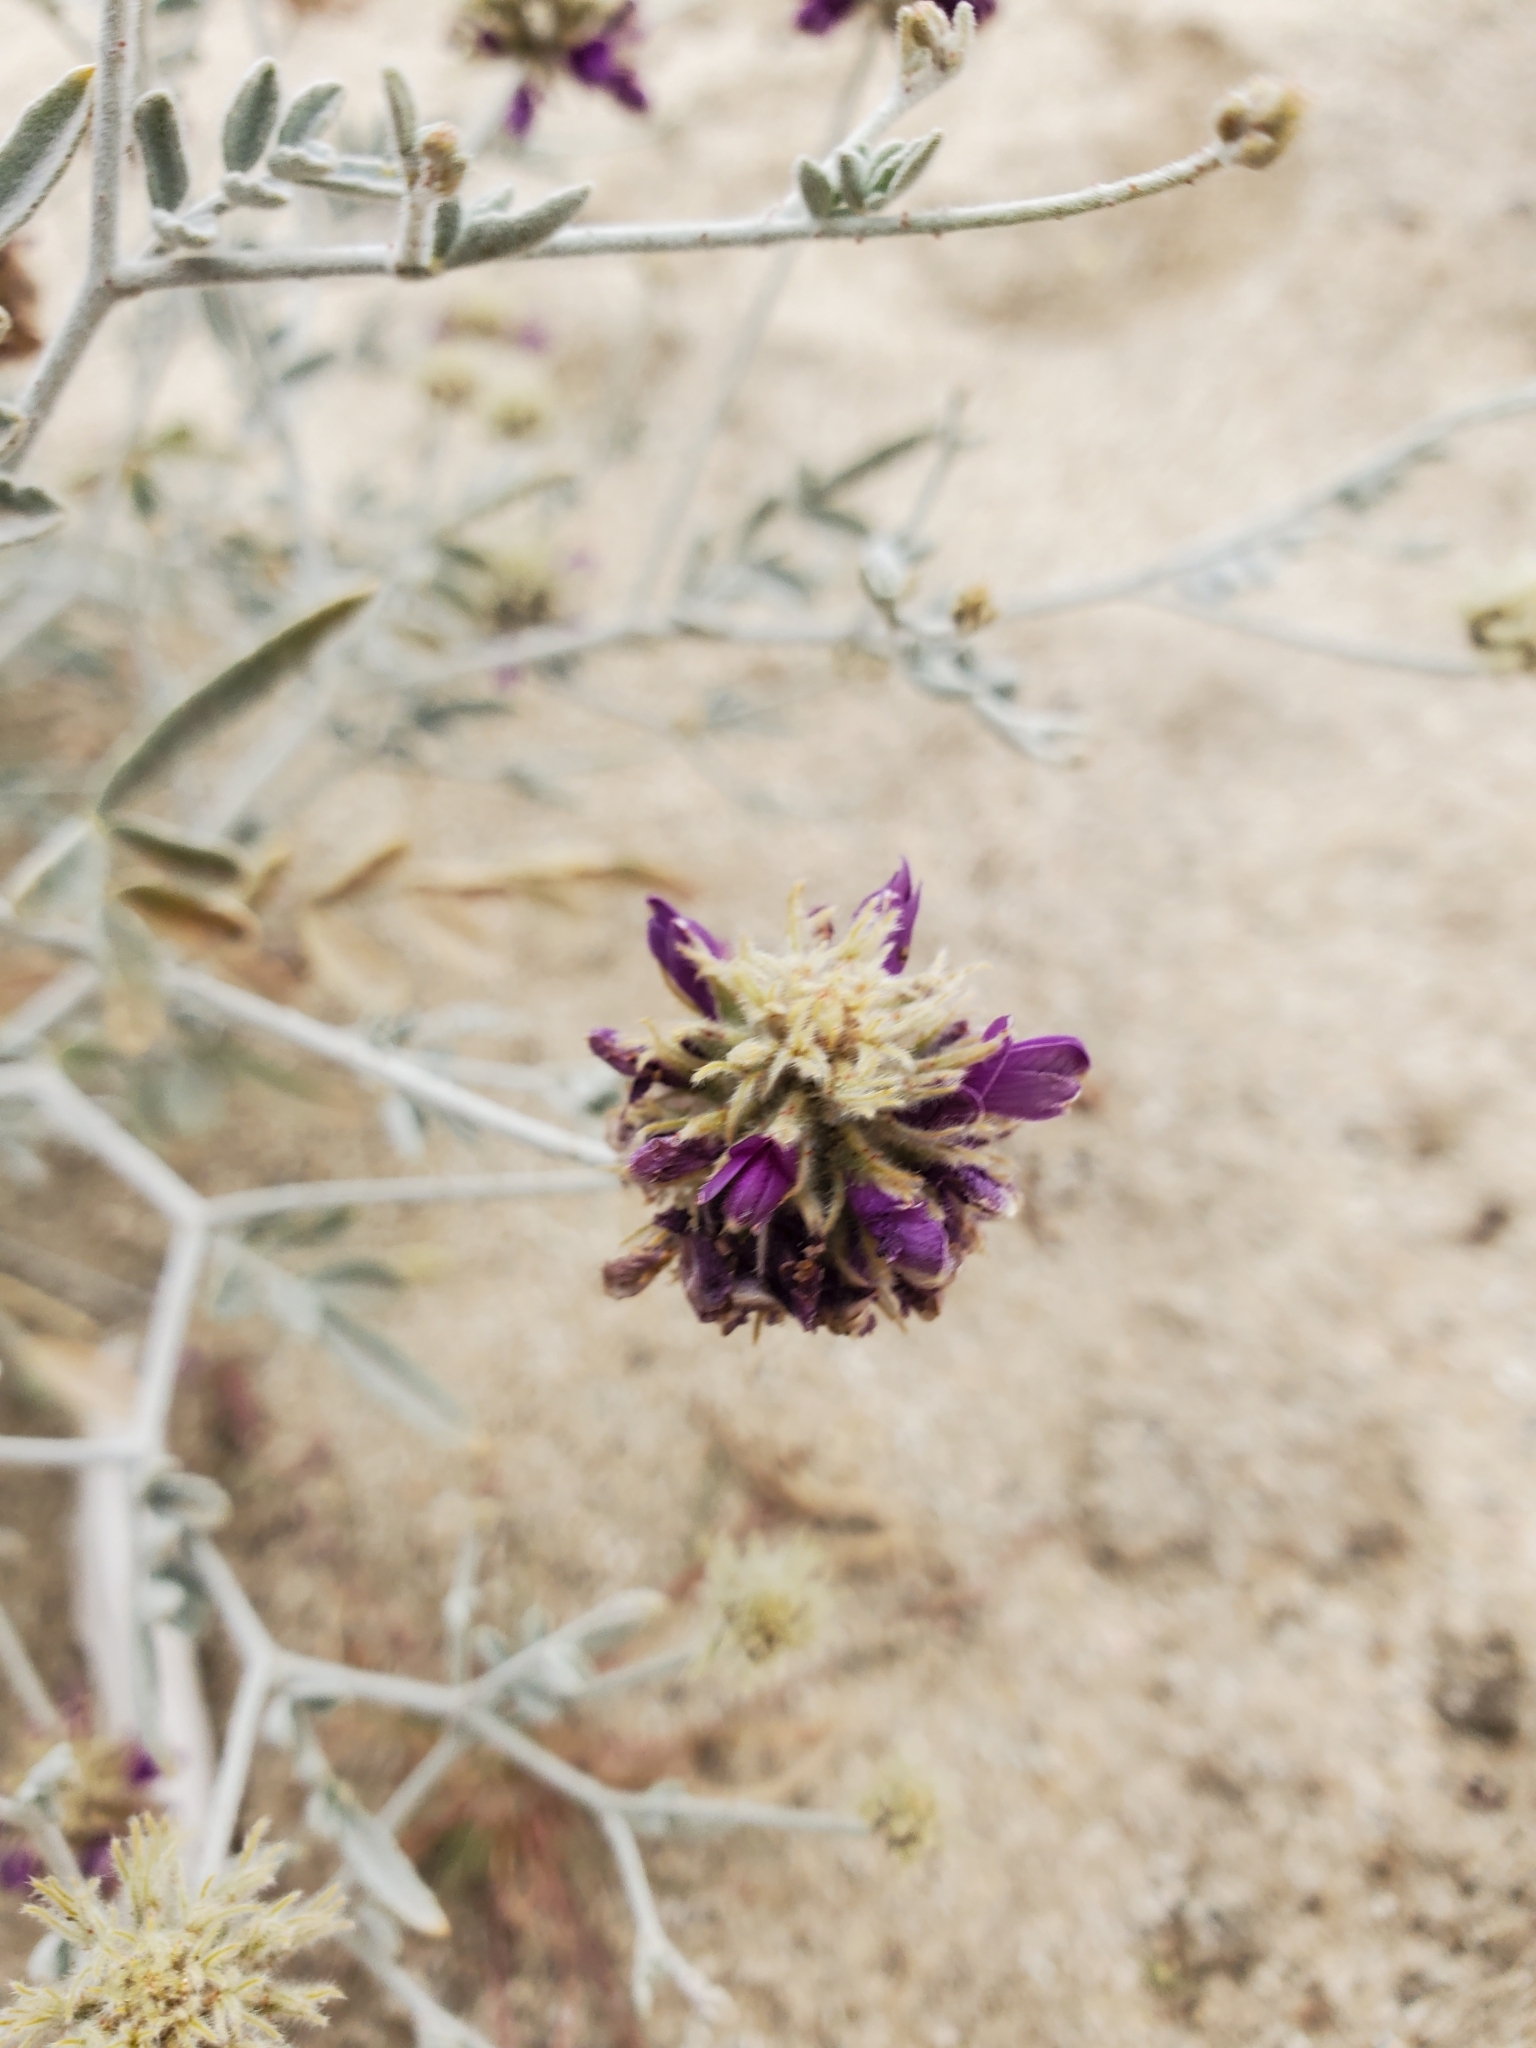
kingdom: Plantae
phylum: Tracheophyta
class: Magnoliopsida
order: Fabales
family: Fabaceae
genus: Psorothamnus
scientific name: Psorothamnus emoryi
